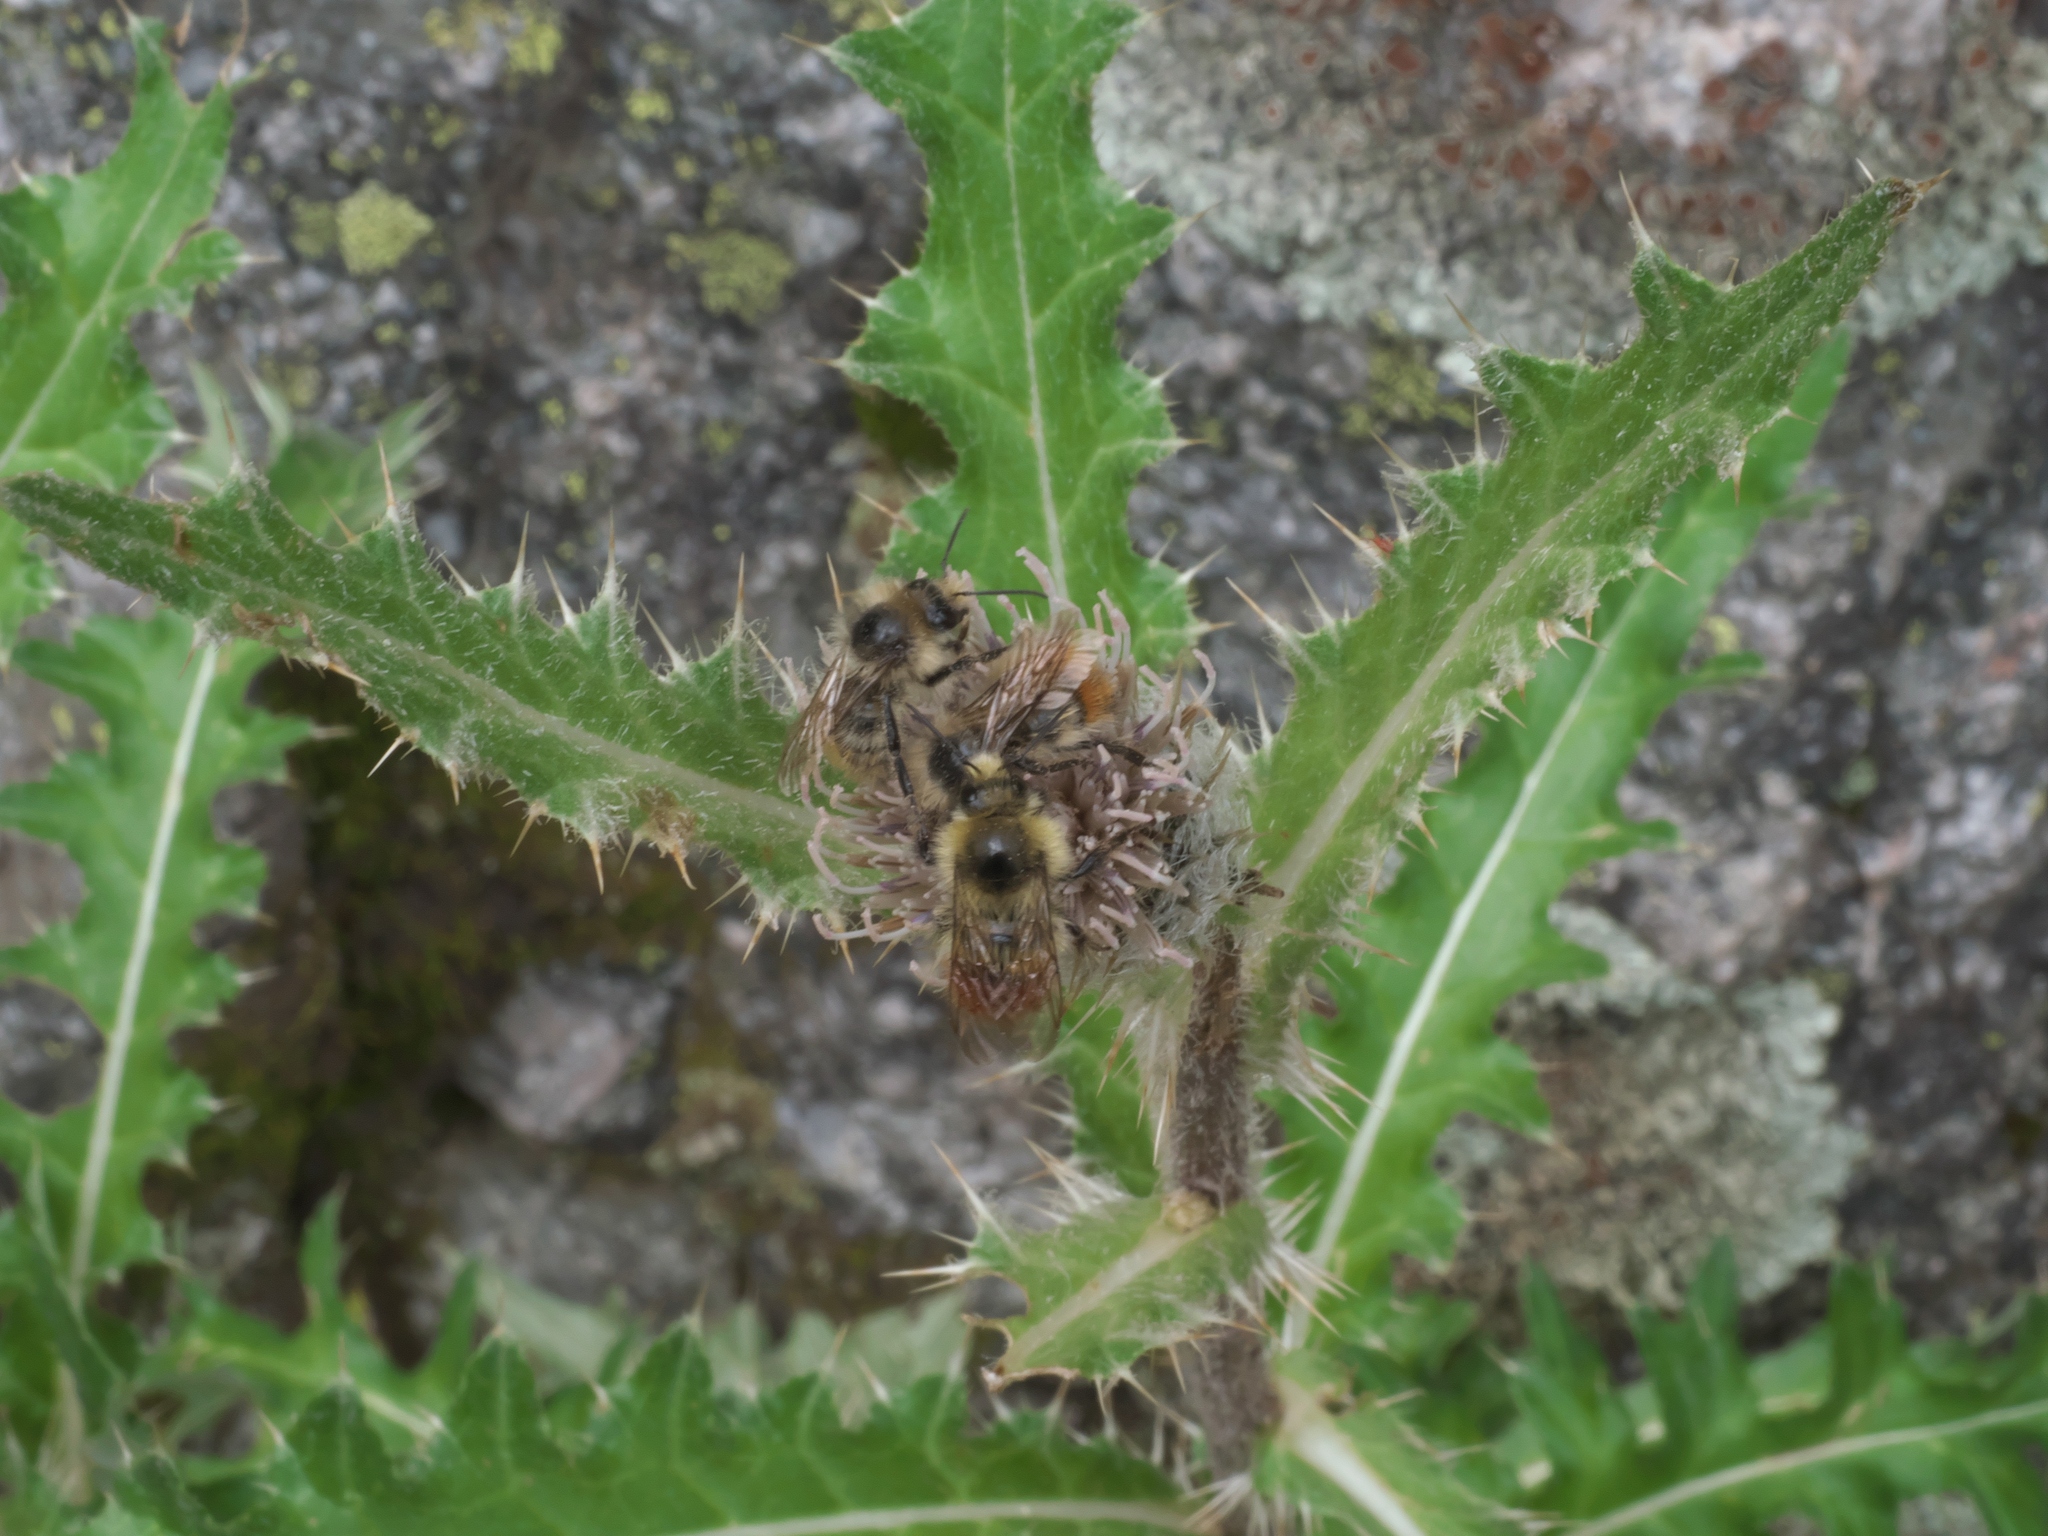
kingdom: Plantae
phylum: Tracheophyta
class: Magnoliopsida
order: Asterales
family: Asteraceae
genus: Cirsium
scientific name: Cirsium griseum
